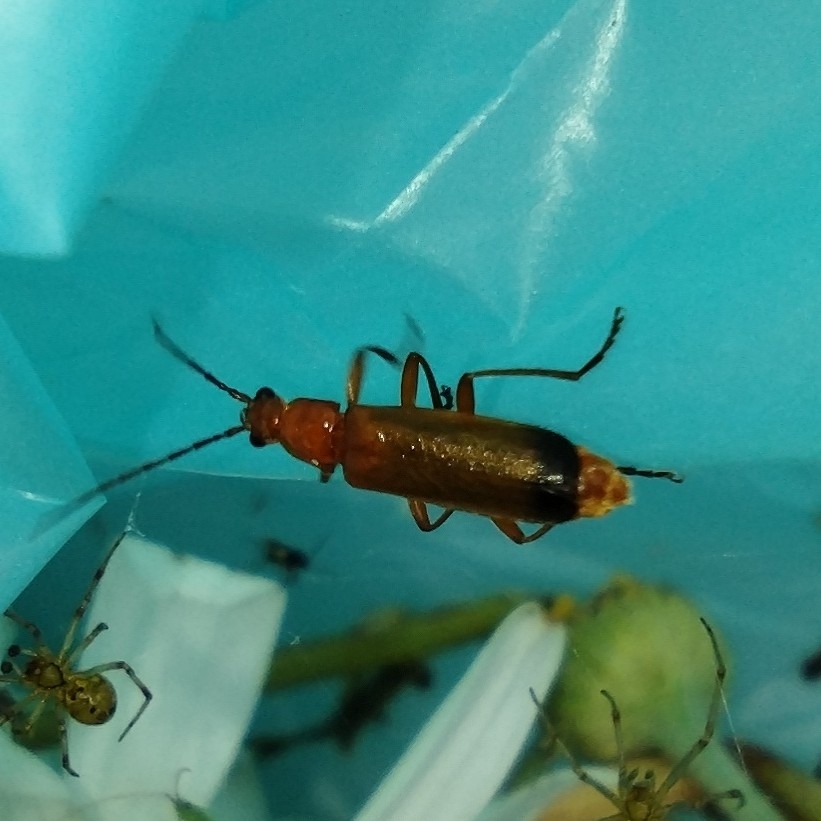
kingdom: Animalia
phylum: Arthropoda
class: Insecta
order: Coleoptera
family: Cantharidae
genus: Rhagonycha
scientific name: Rhagonycha fulva
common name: Common red soldier beetle
